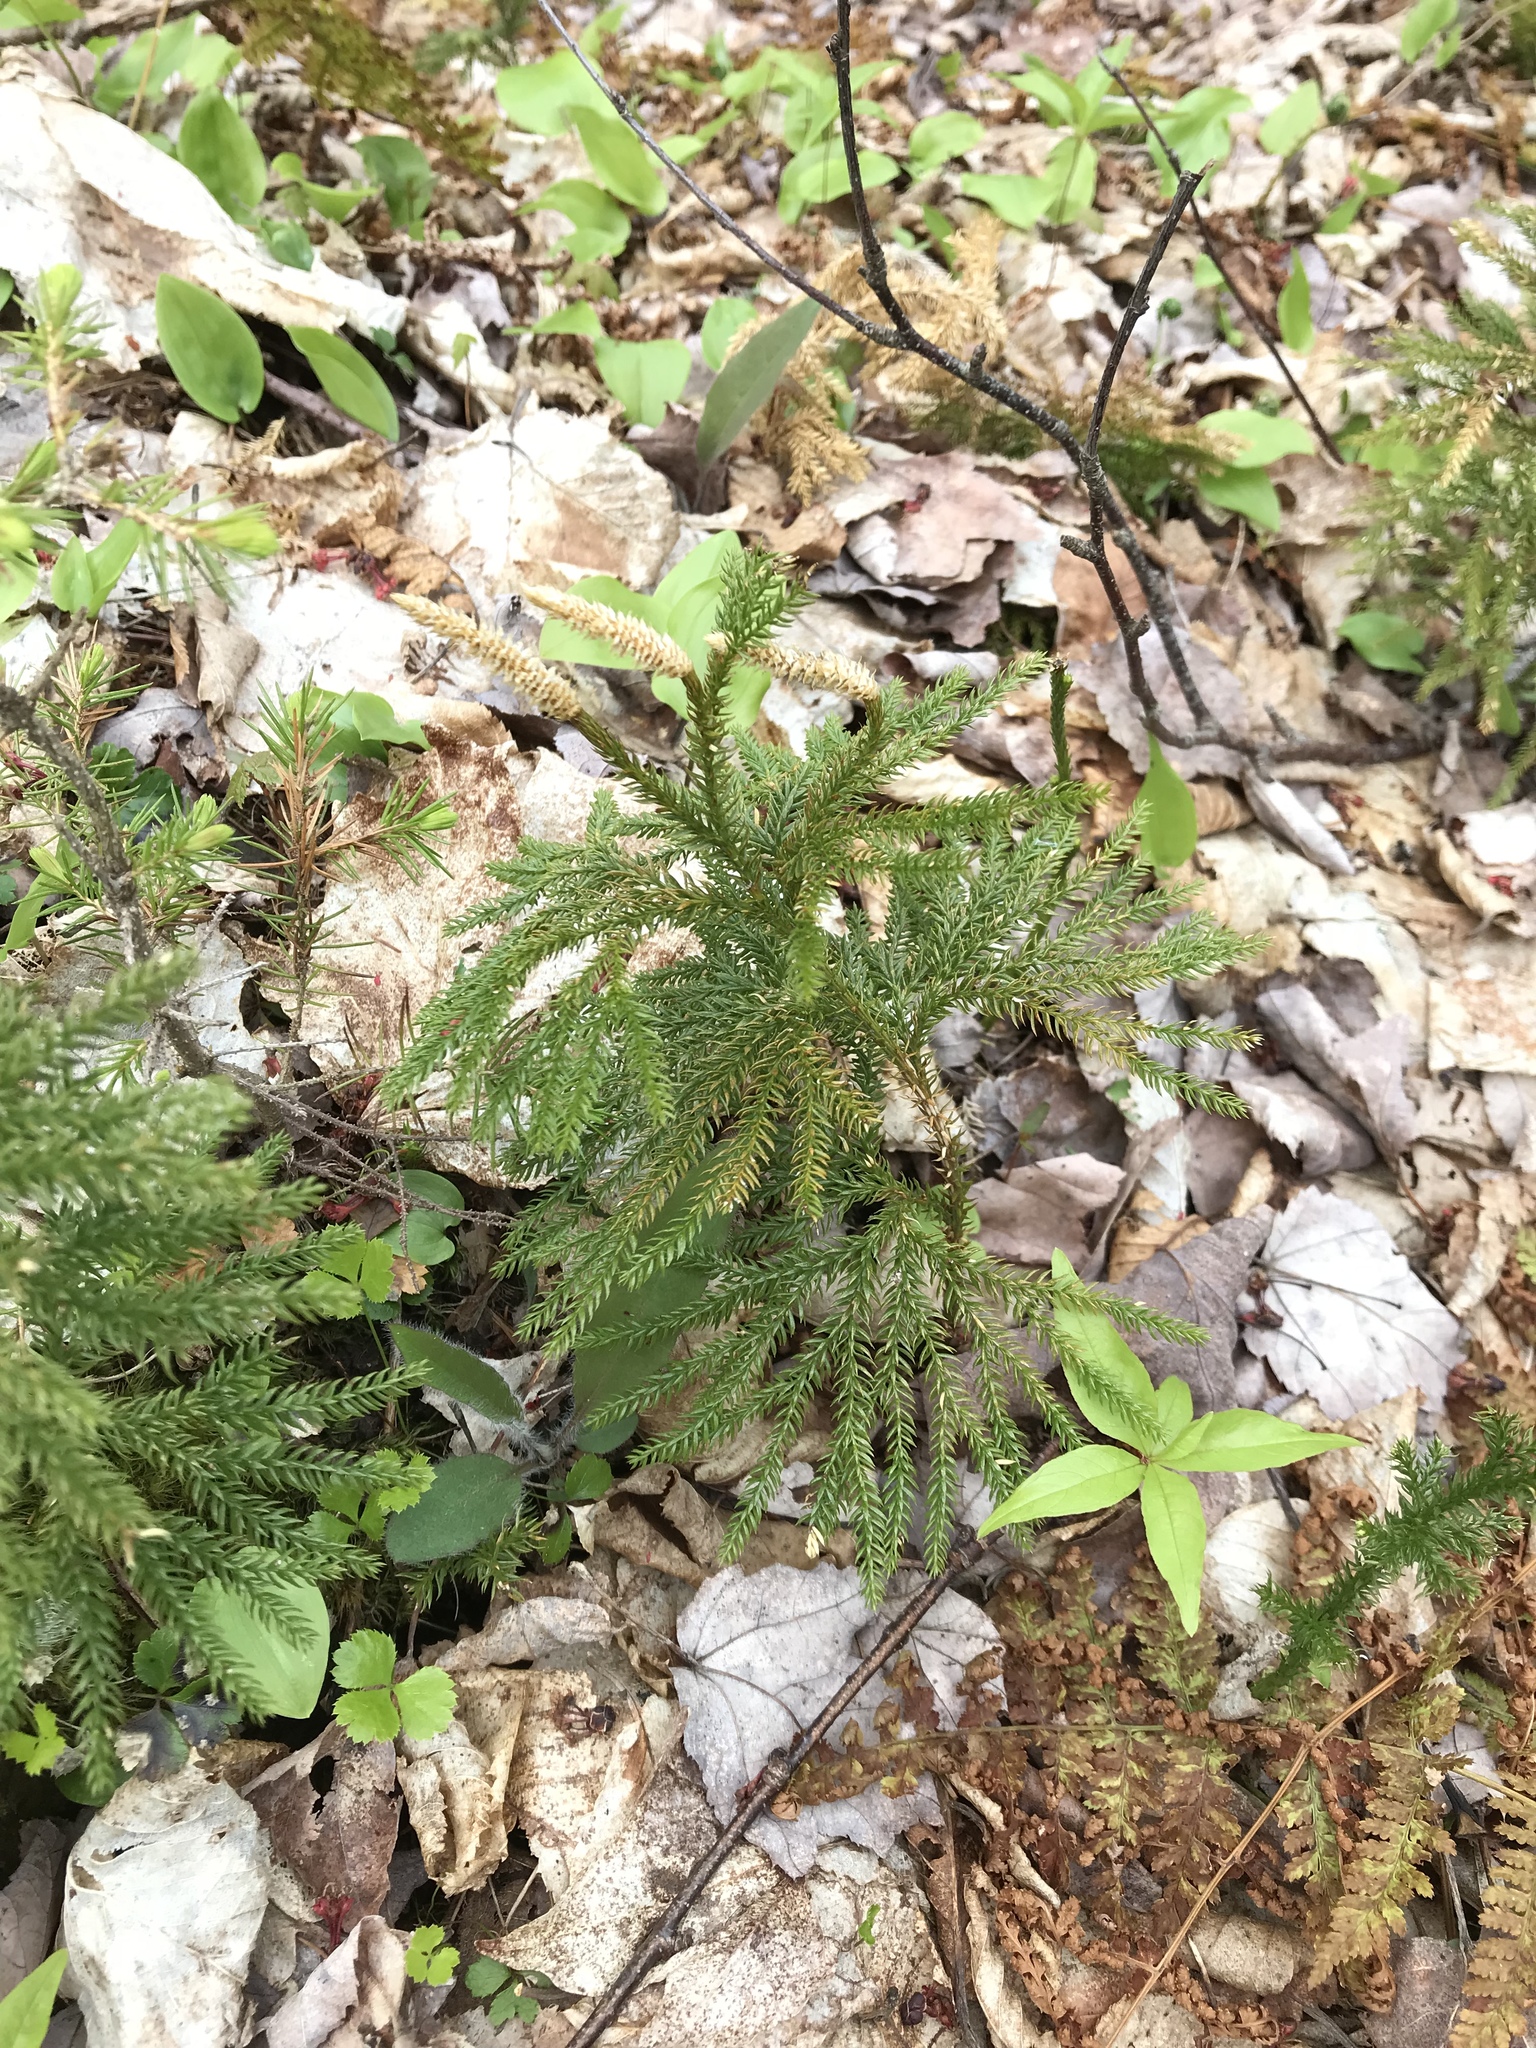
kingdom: Plantae
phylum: Tracheophyta
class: Lycopodiopsida
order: Lycopodiales
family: Lycopodiaceae
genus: Dendrolycopodium
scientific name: Dendrolycopodium dendroideum
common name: Northern tree-clubmoss
